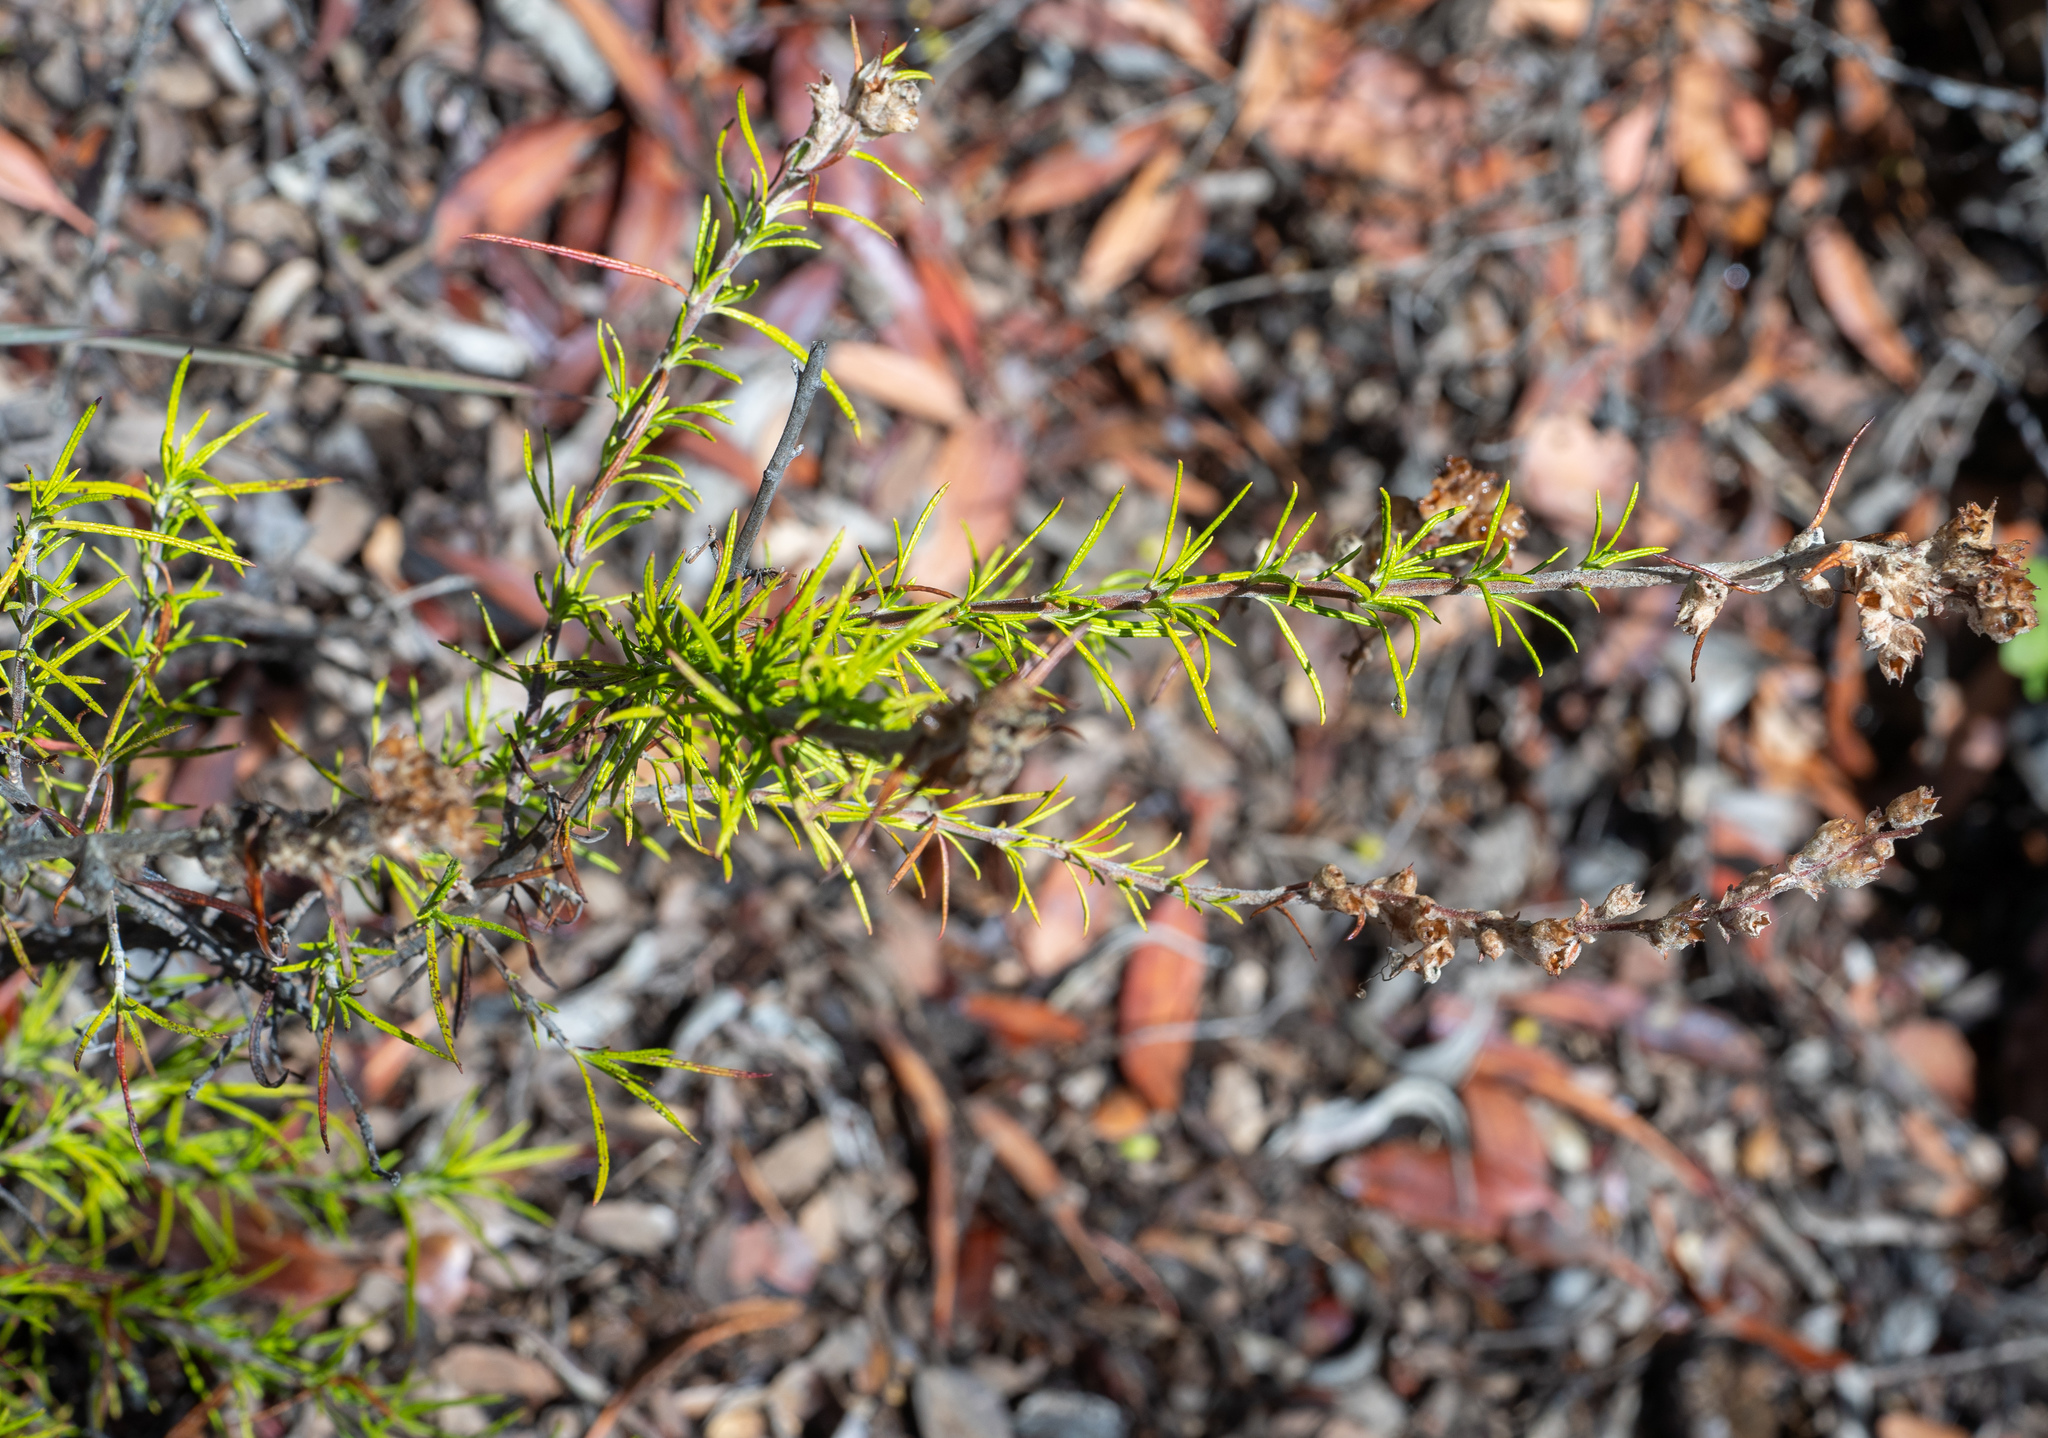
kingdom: Plantae
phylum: Tracheophyta
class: Magnoliopsida
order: Lamiales
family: Lamiaceae
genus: Trichostema
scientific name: Trichostema lanatum
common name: Woolly bluecurls
